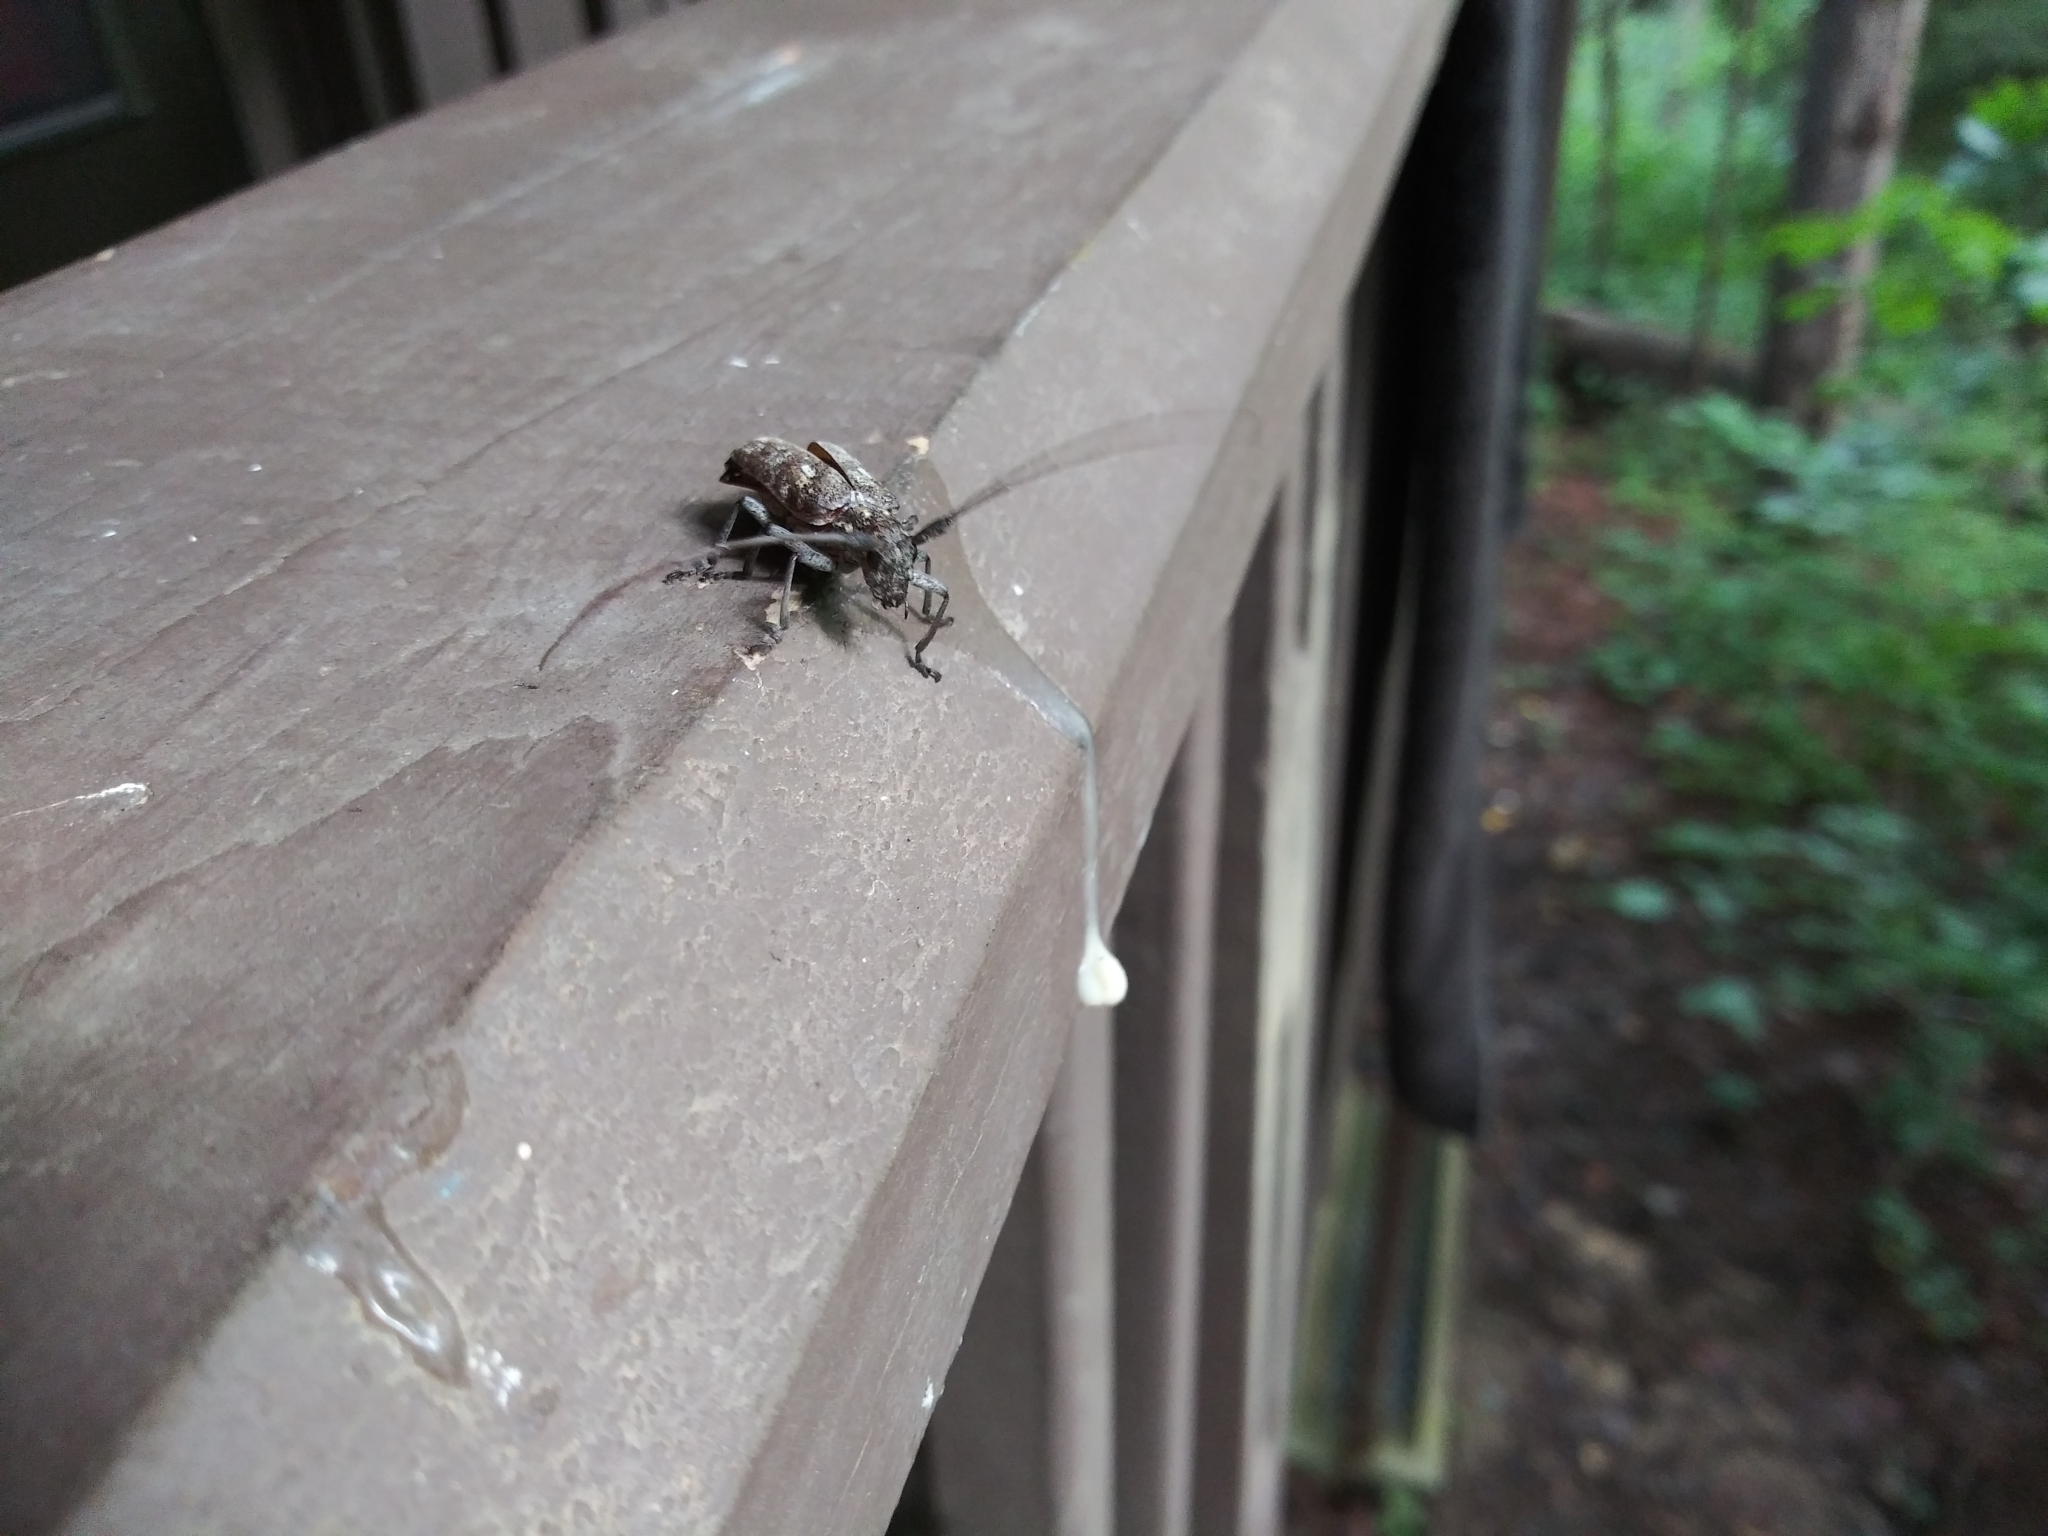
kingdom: Animalia
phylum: Arthropoda
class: Insecta
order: Coleoptera
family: Cerambycidae
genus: Monochamus
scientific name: Monochamus carolinensis
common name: Carolina pine sawyer
